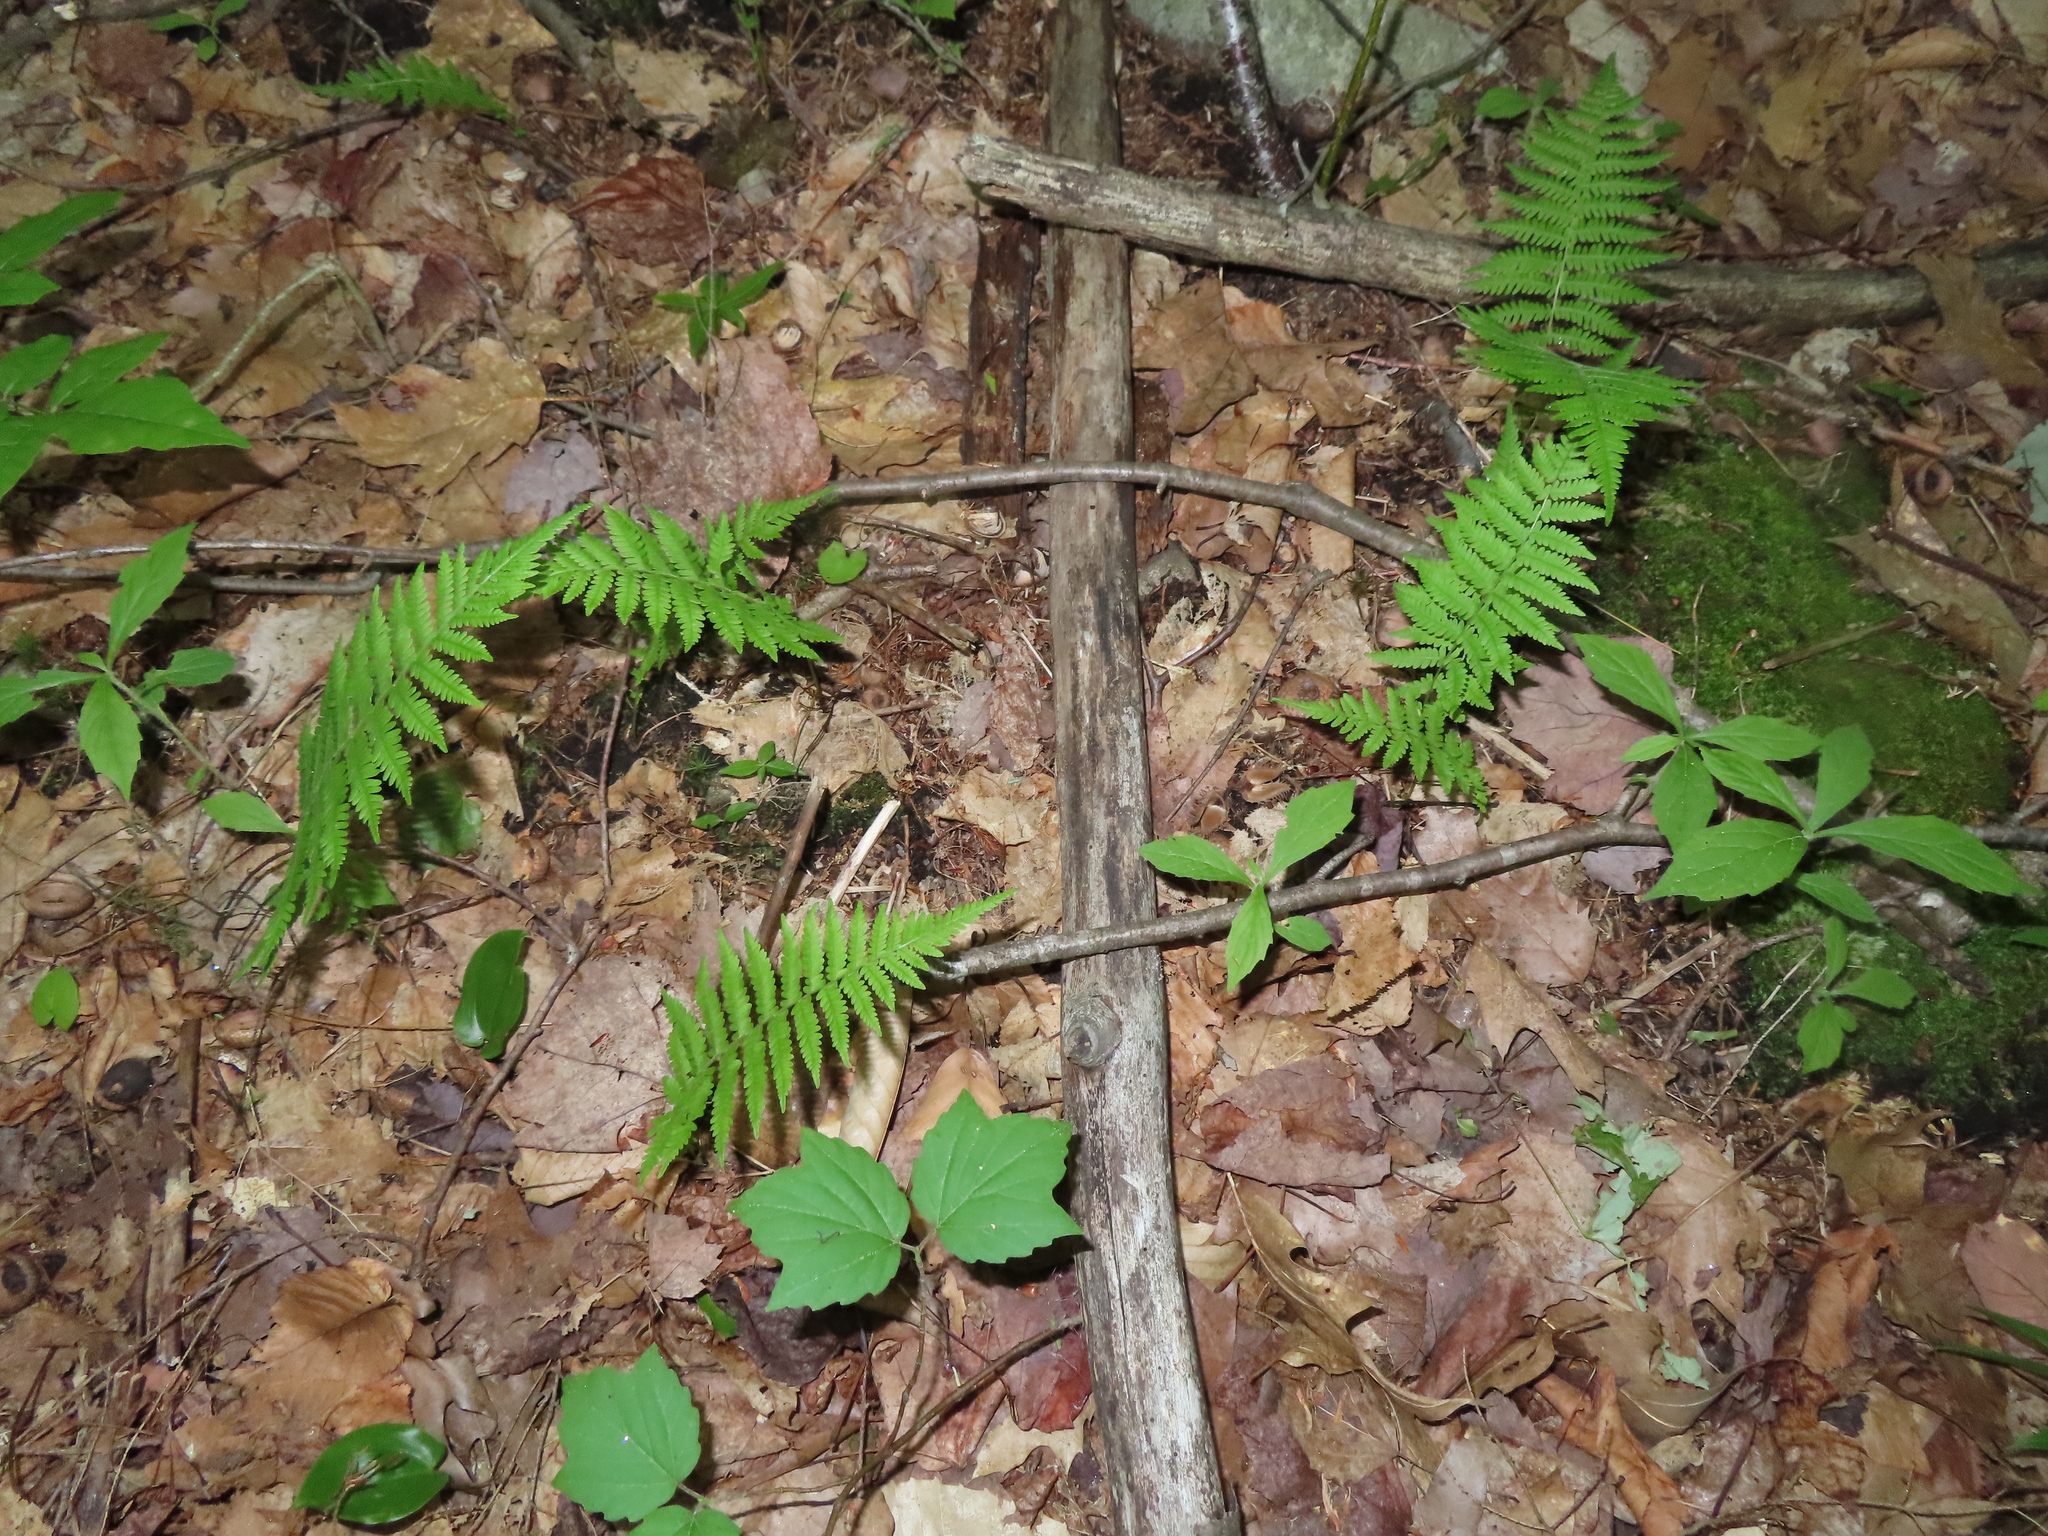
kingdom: Plantae
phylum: Tracheophyta
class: Polypodiopsida
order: Polypodiales
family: Thelypteridaceae
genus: Amauropelta
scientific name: Amauropelta noveboracensis
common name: New york fern
